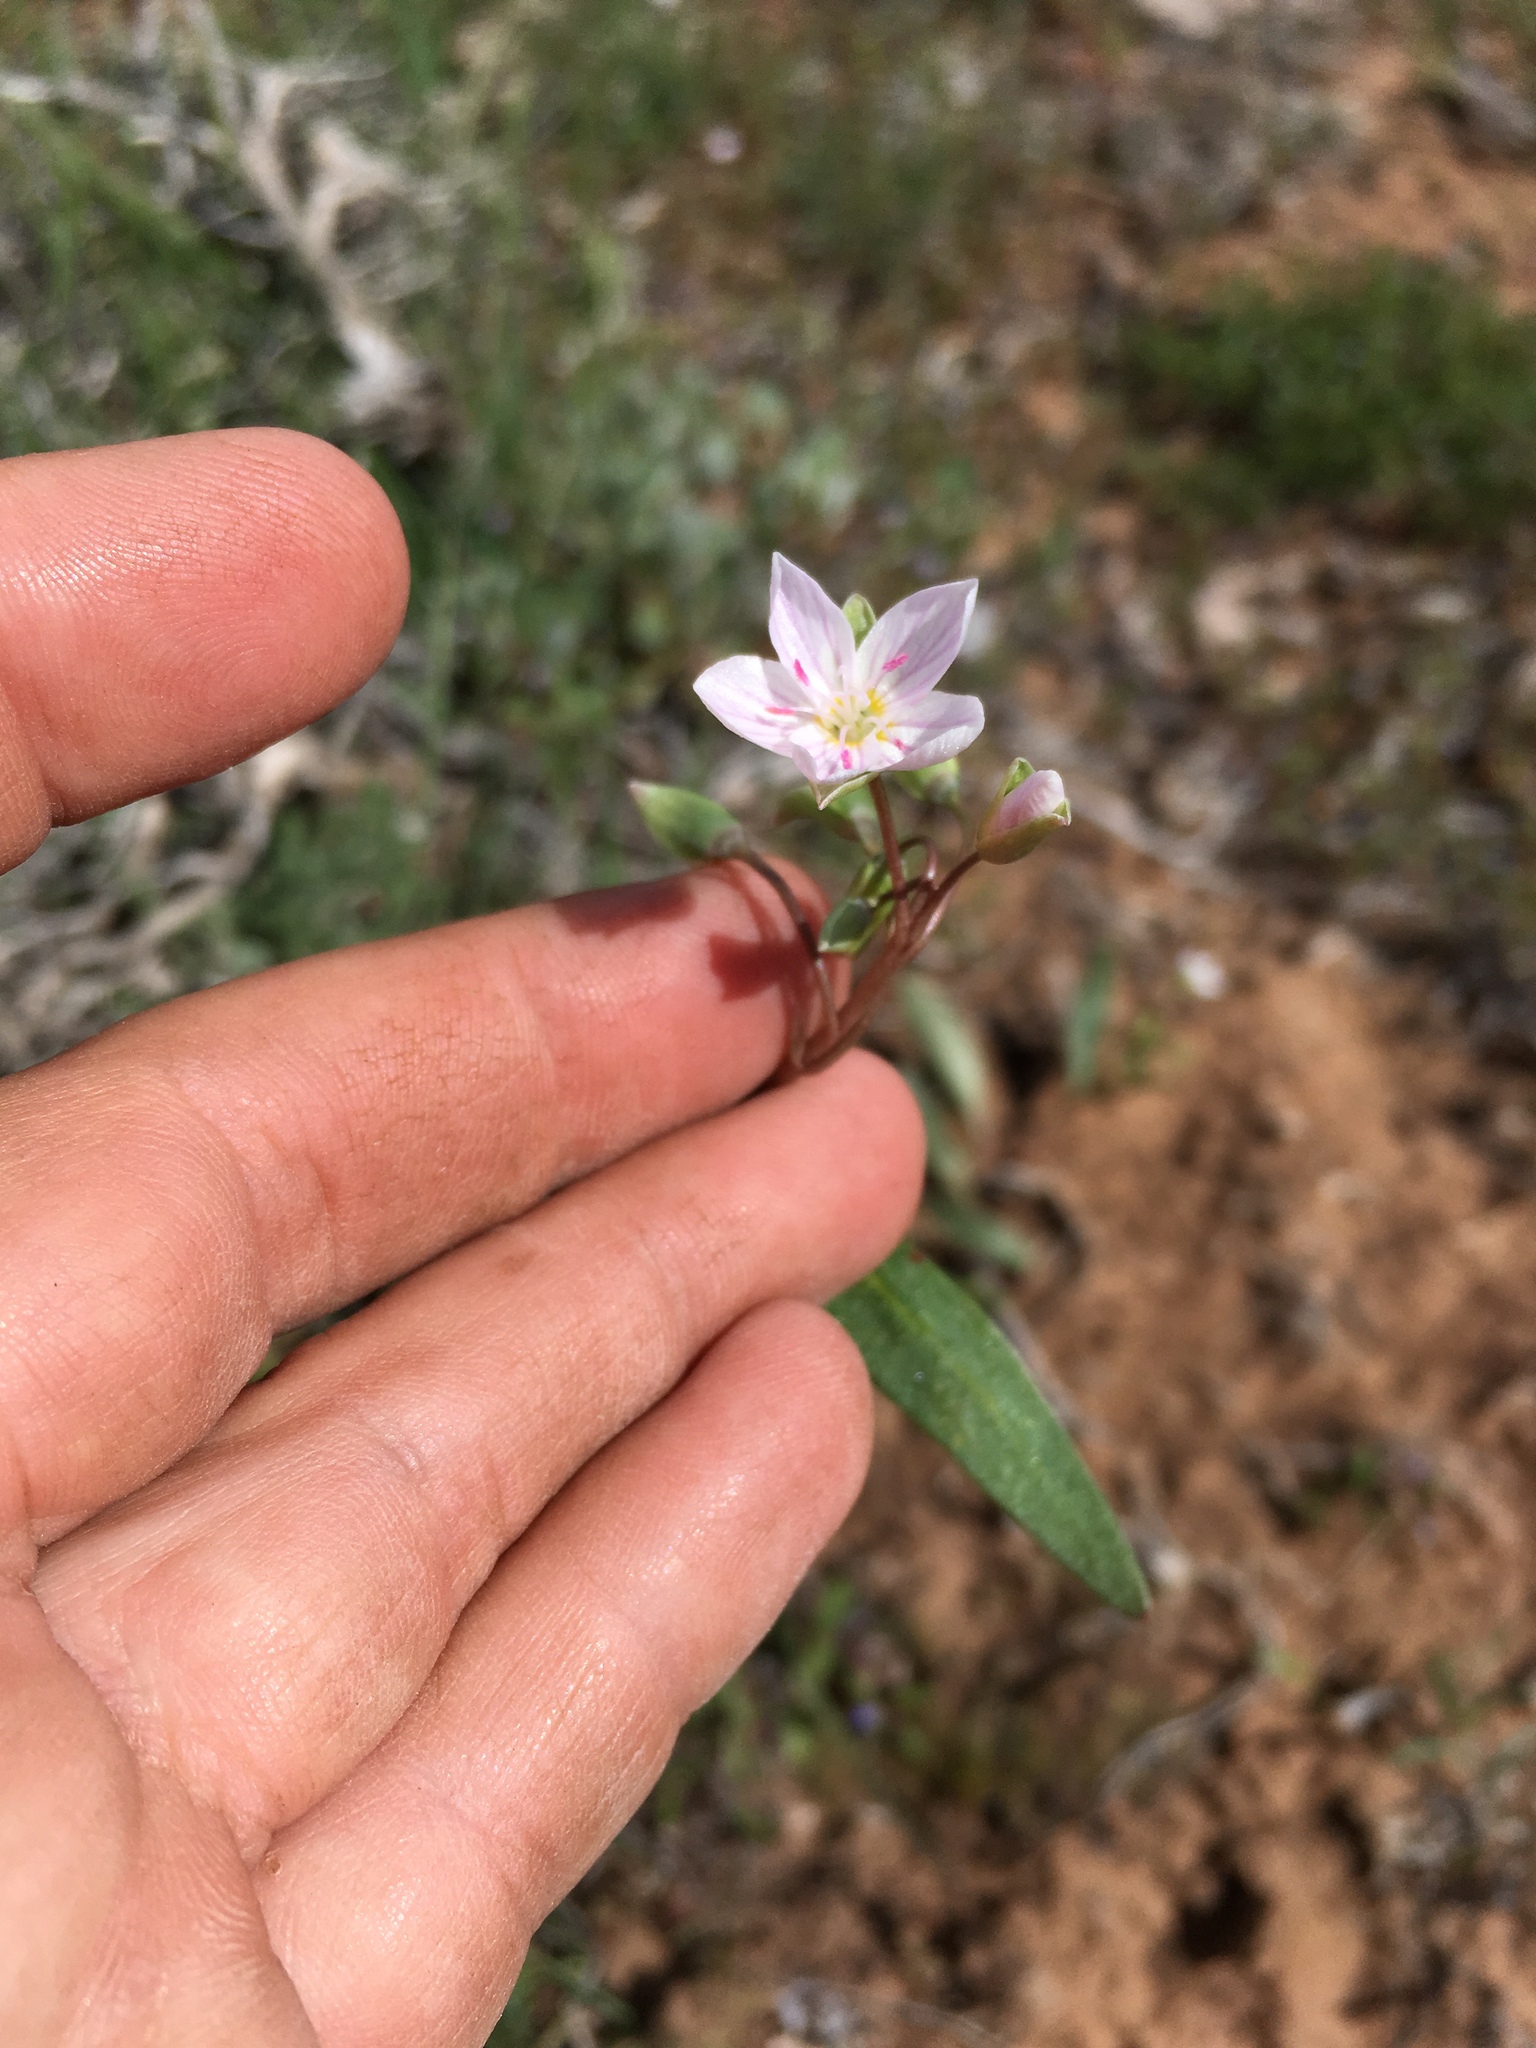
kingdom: Plantae
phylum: Tracheophyta
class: Magnoliopsida
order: Caryophyllales
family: Montiaceae
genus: Claytonia
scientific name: Claytonia rosea
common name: Rocky mountain spring-beauty
